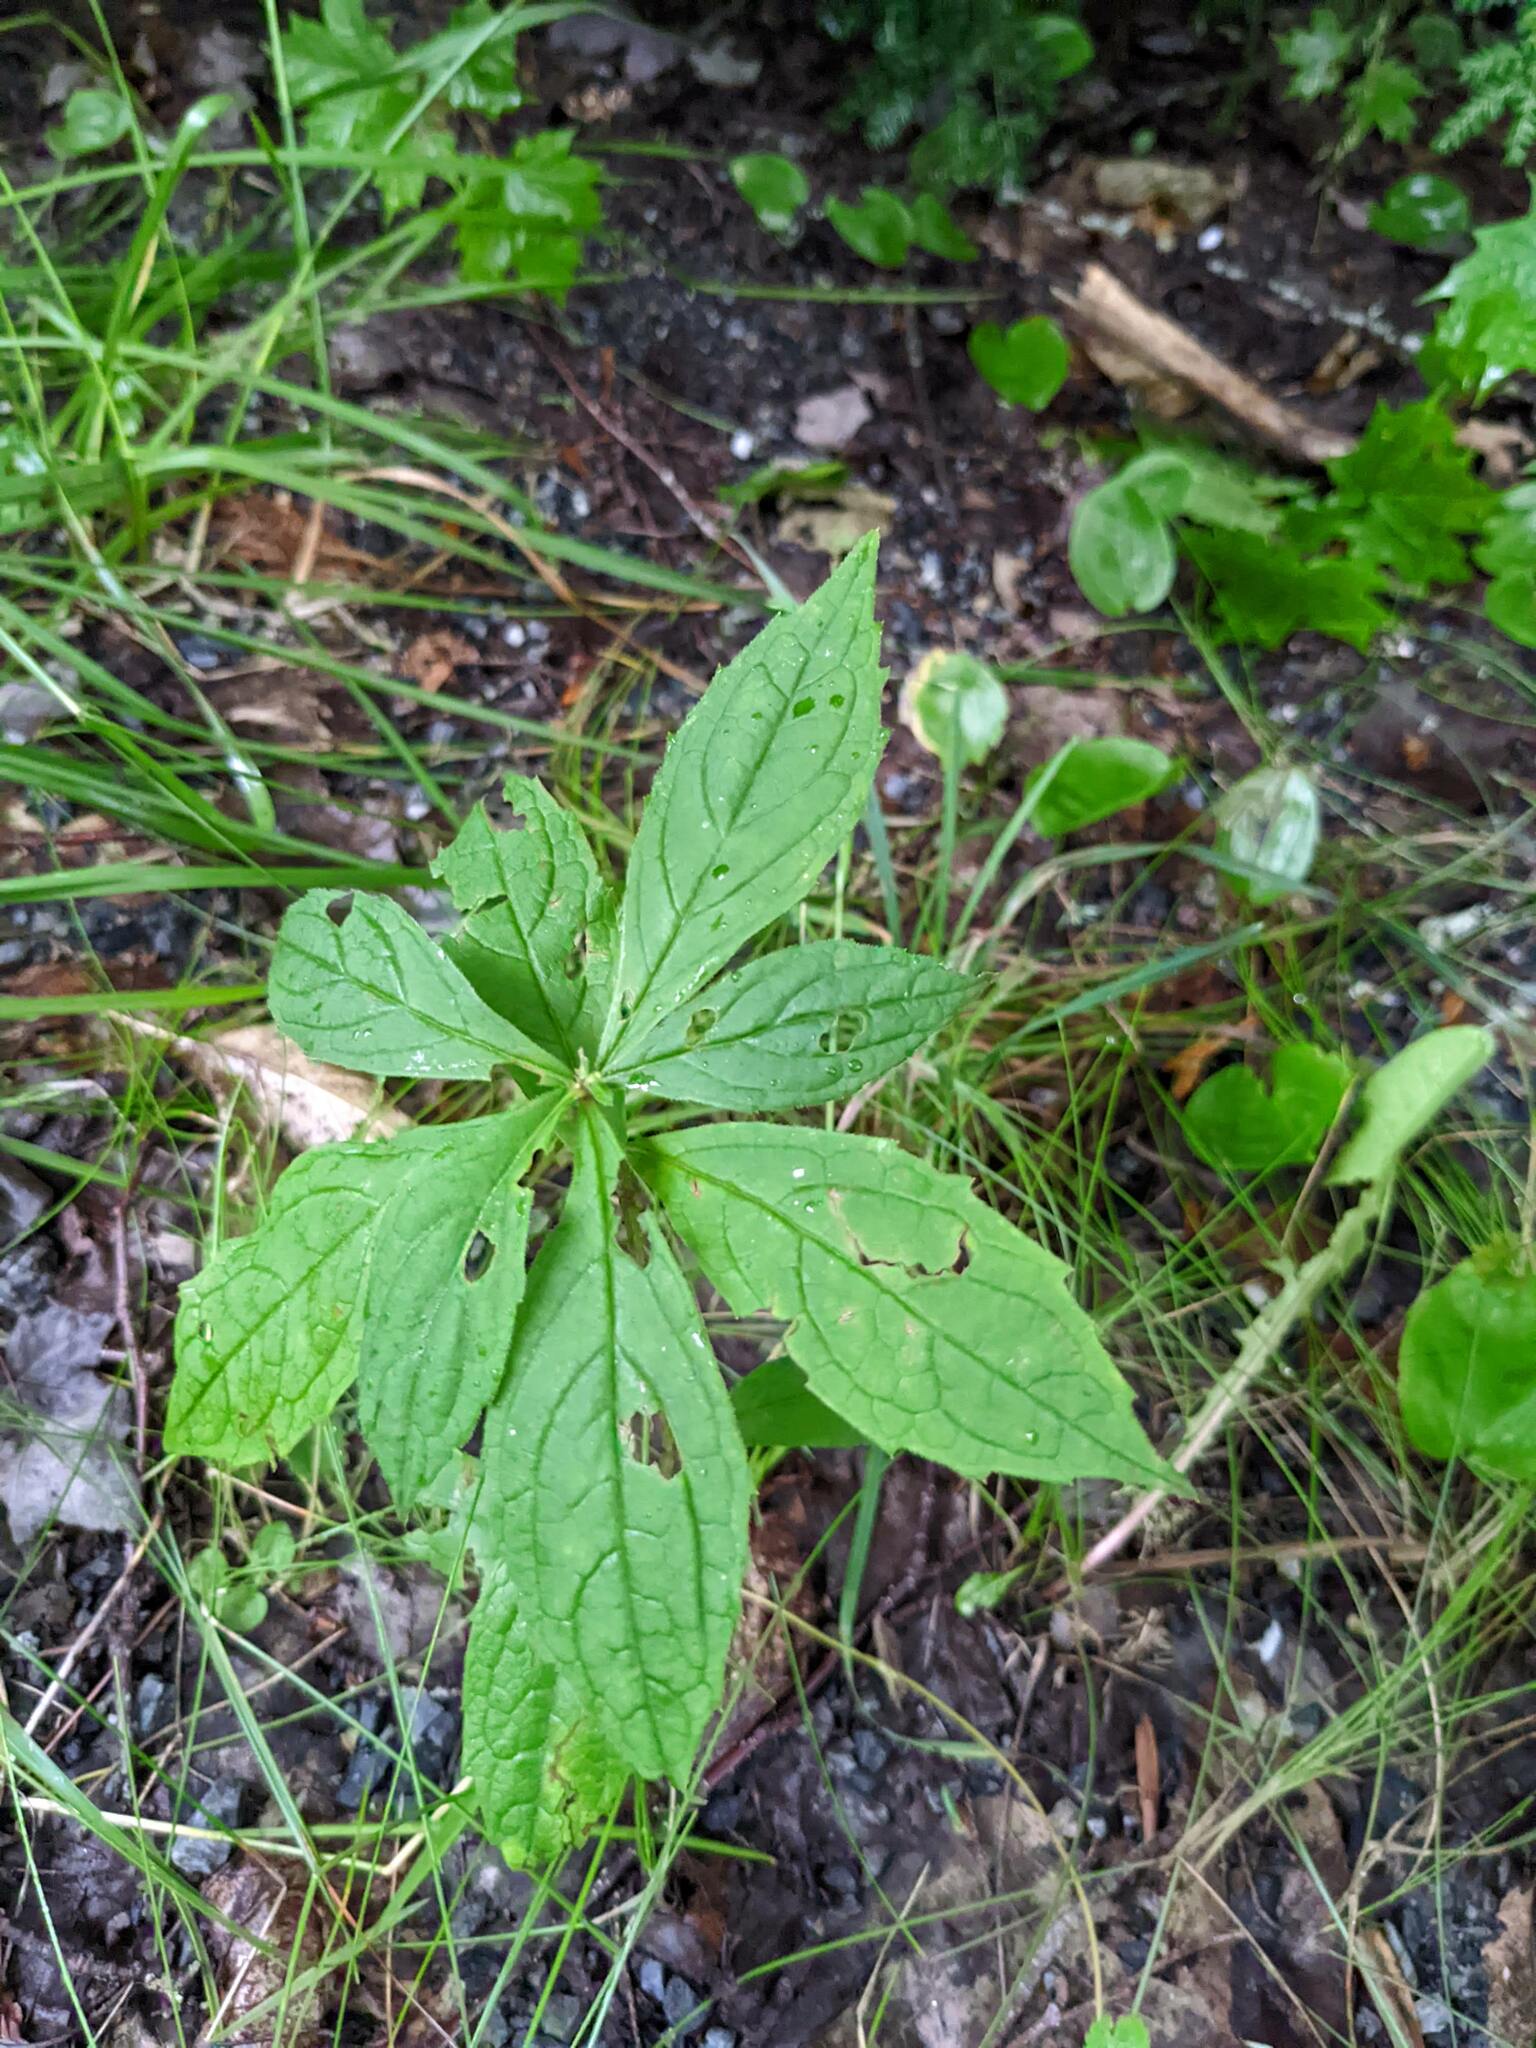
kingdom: Plantae
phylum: Tracheophyta
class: Magnoliopsida
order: Asterales
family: Asteraceae
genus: Oclemena
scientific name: Oclemena acuminata
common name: Mountain aster
